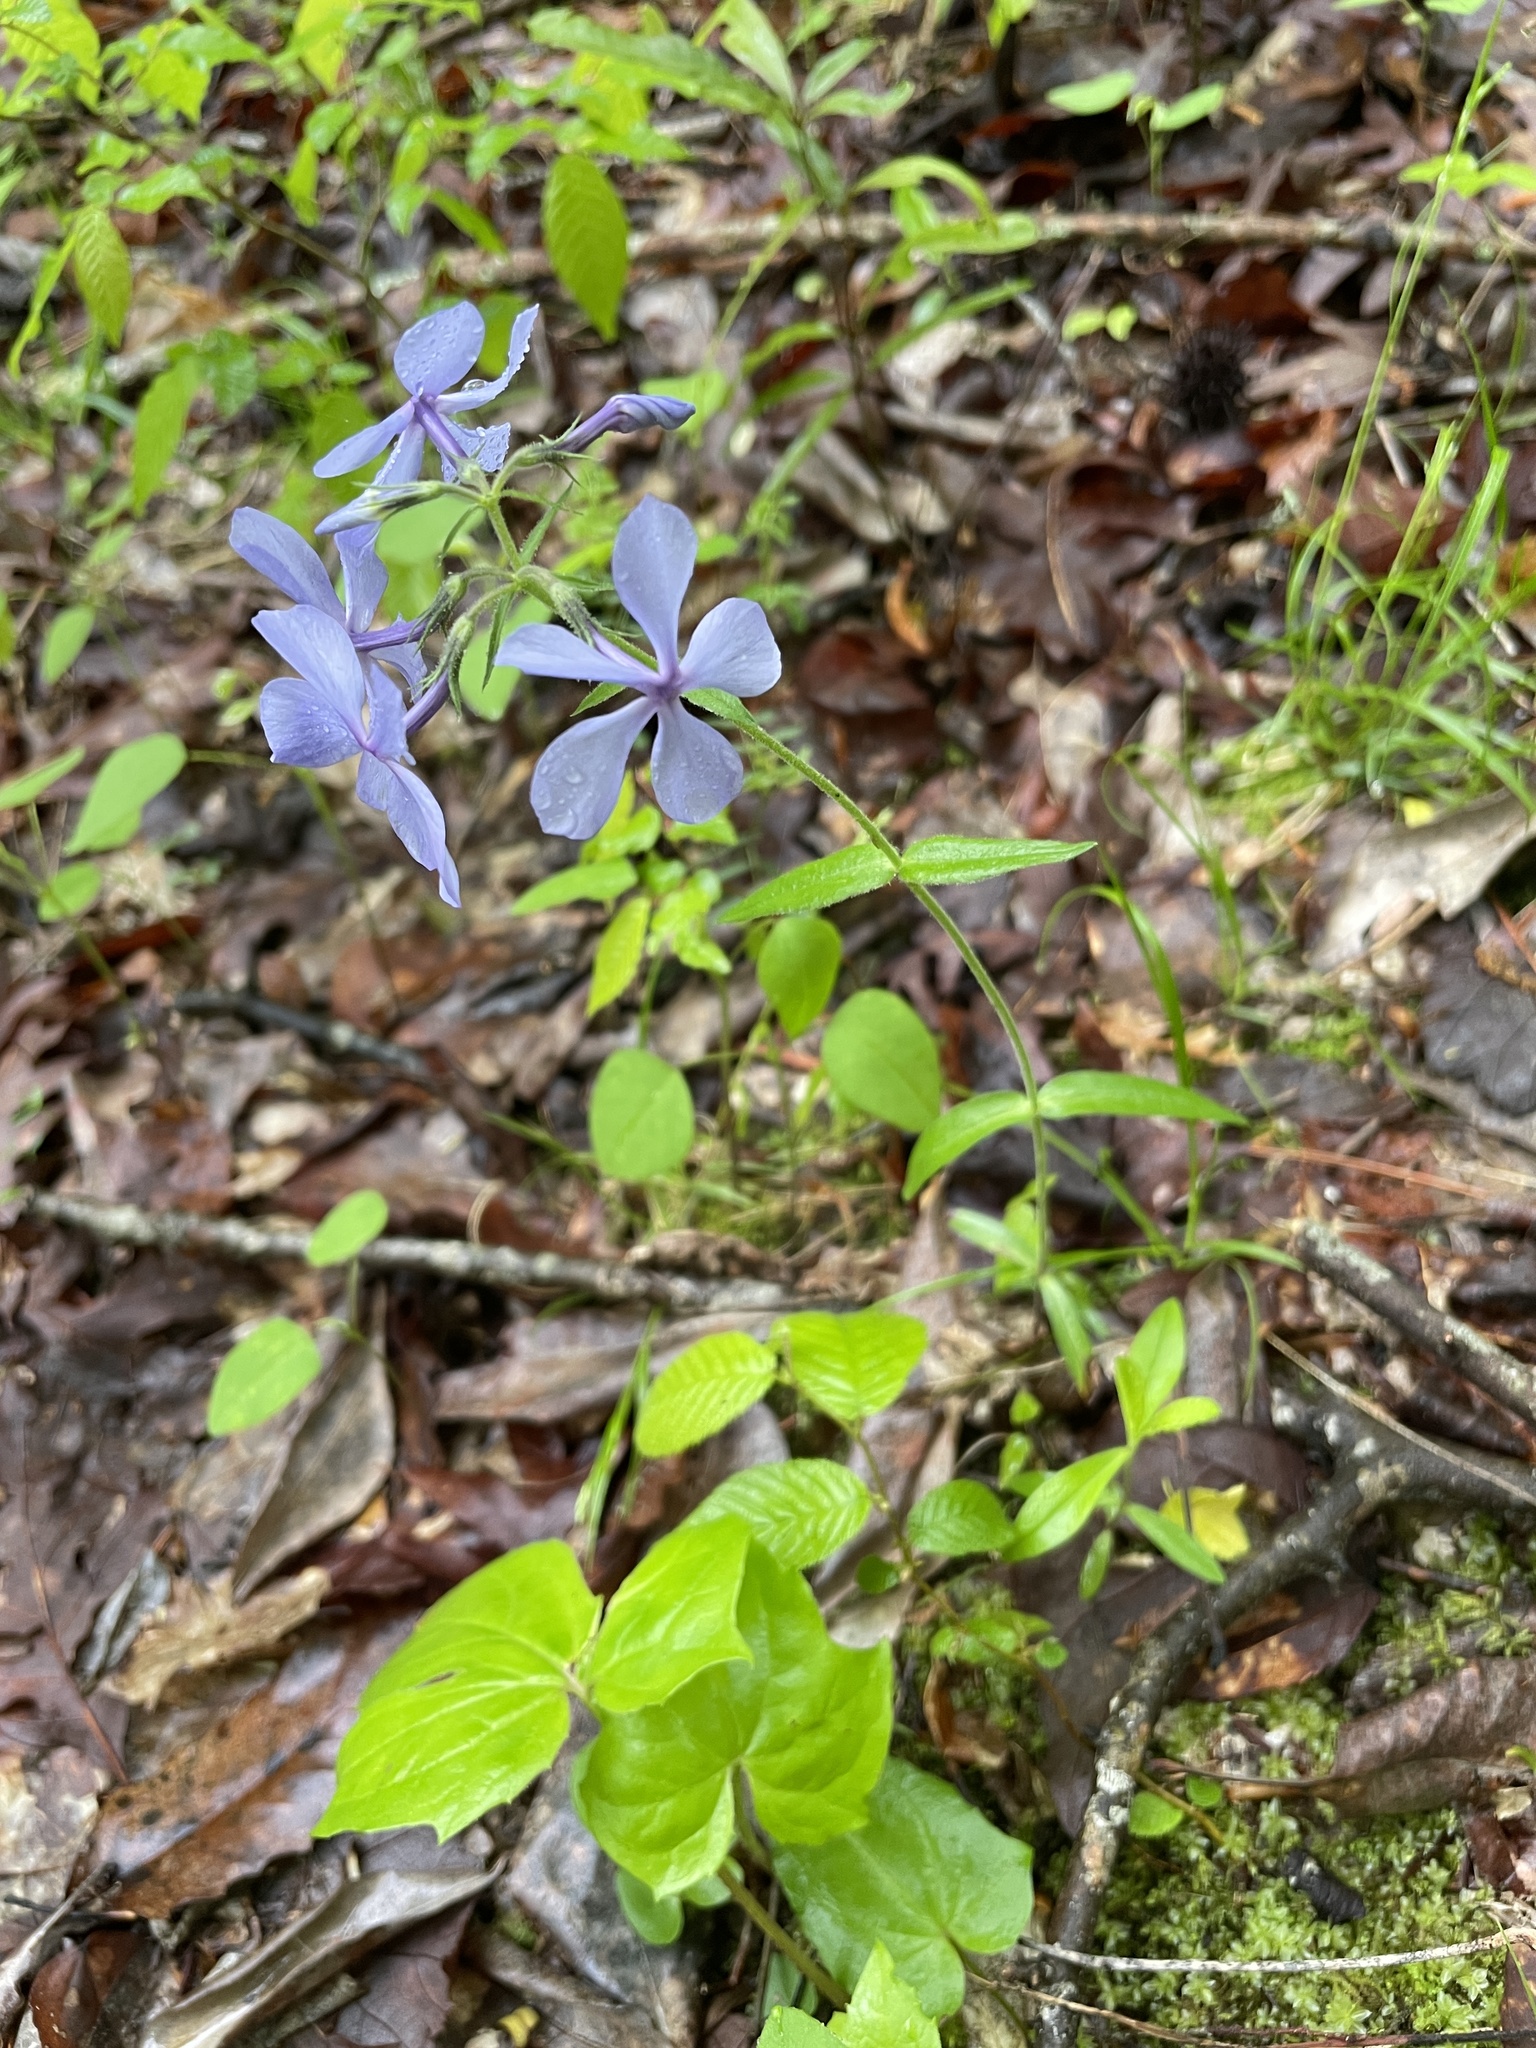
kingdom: Plantae
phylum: Tracheophyta
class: Magnoliopsida
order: Ericales
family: Polemoniaceae
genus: Phlox
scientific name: Phlox divaricata
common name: Blue phlox
